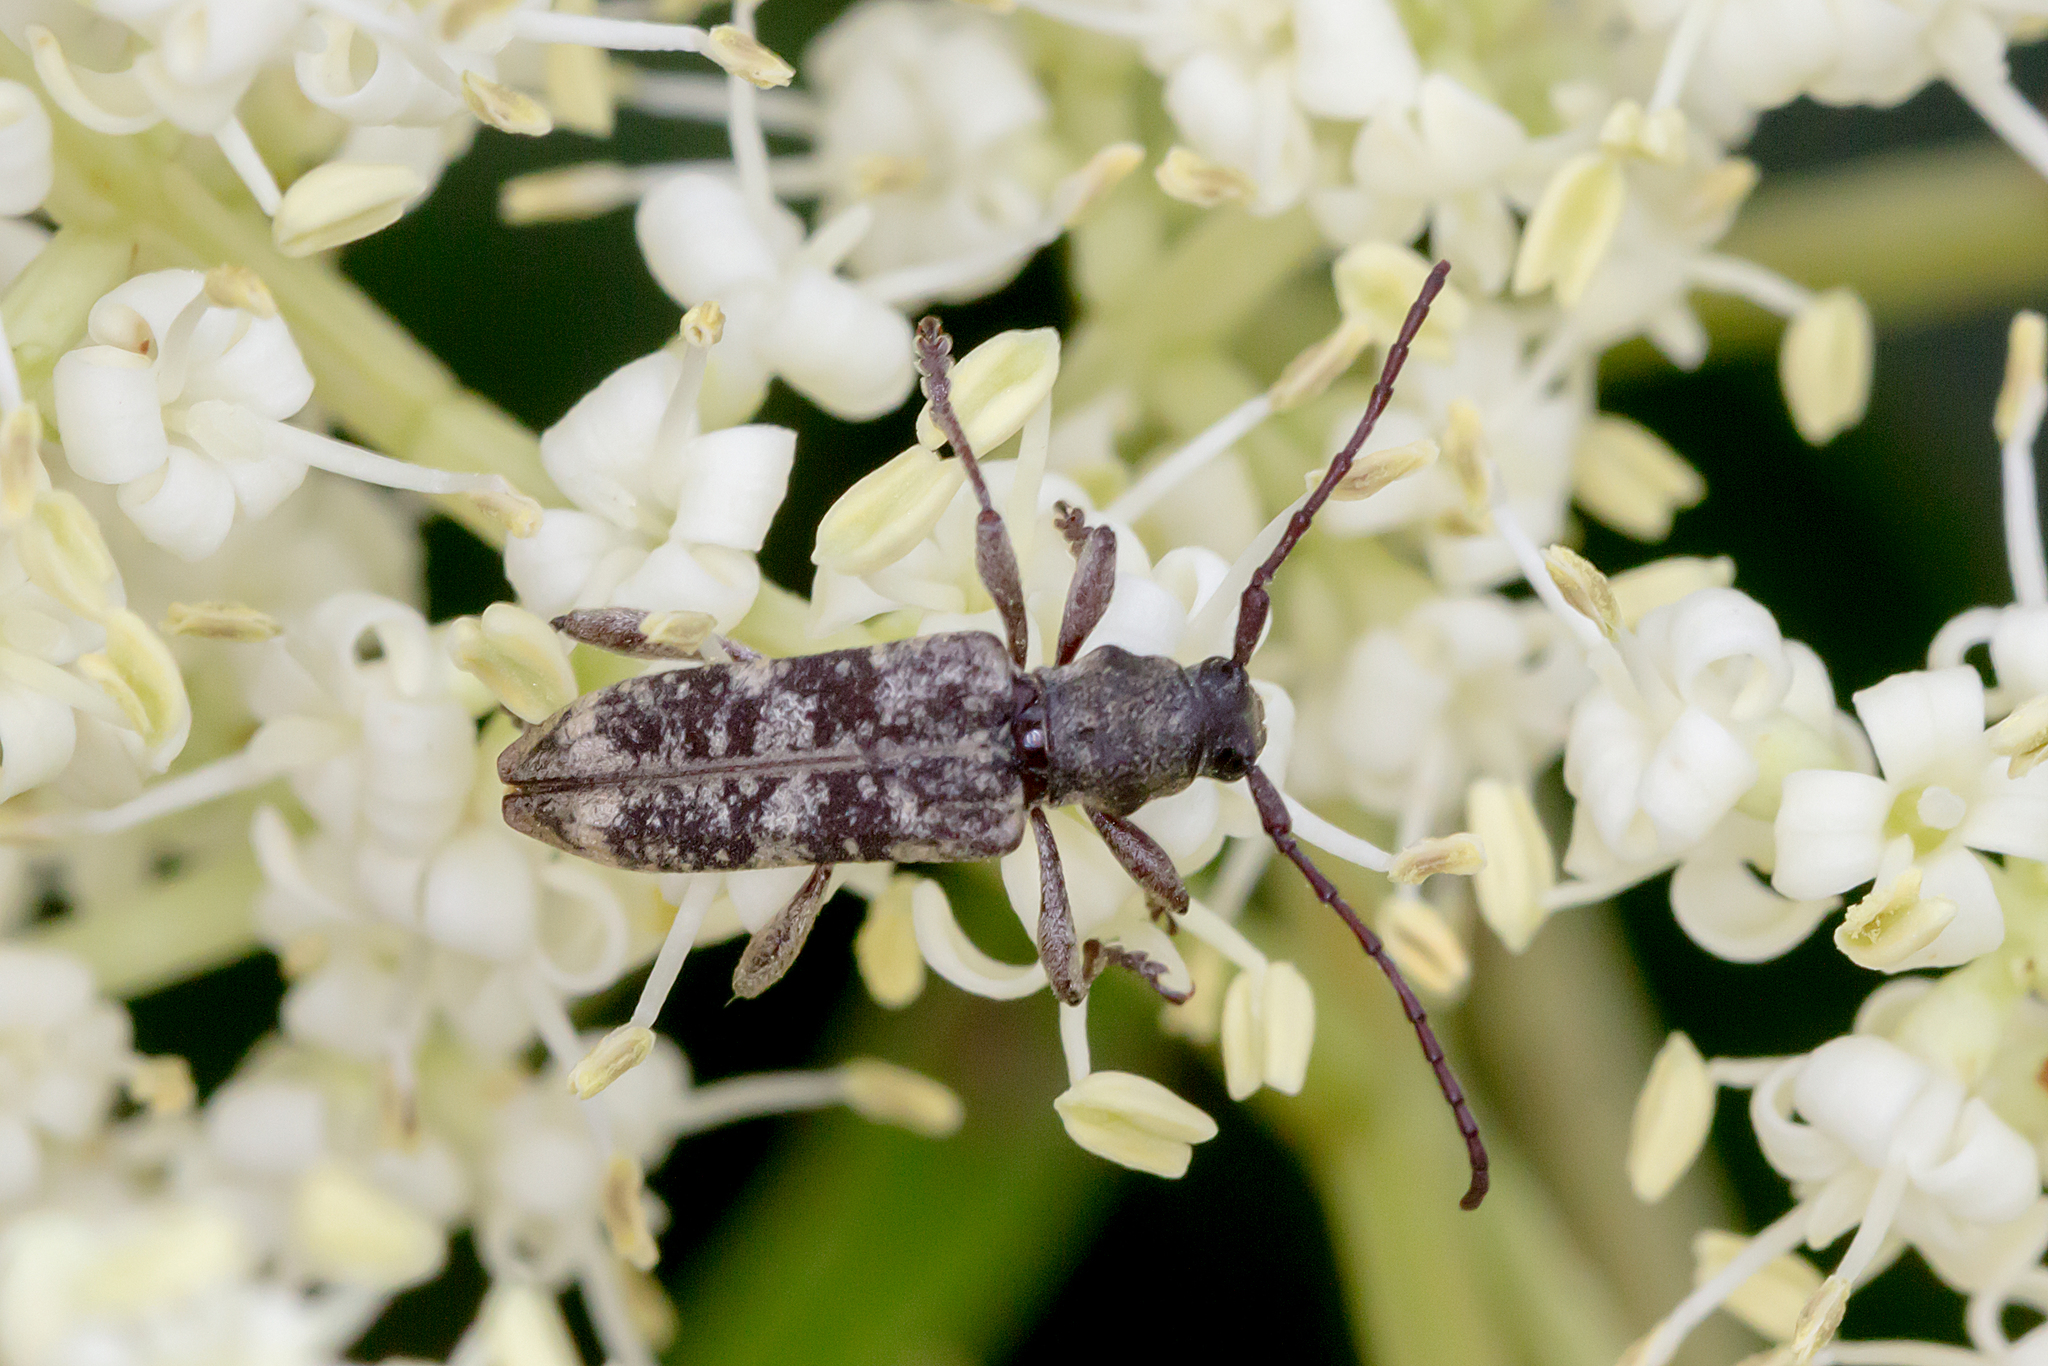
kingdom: Animalia
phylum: Arthropoda
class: Insecta
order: Coleoptera
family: Cerambycidae
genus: Pempsamacra
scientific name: Pempsamacra dispersa
